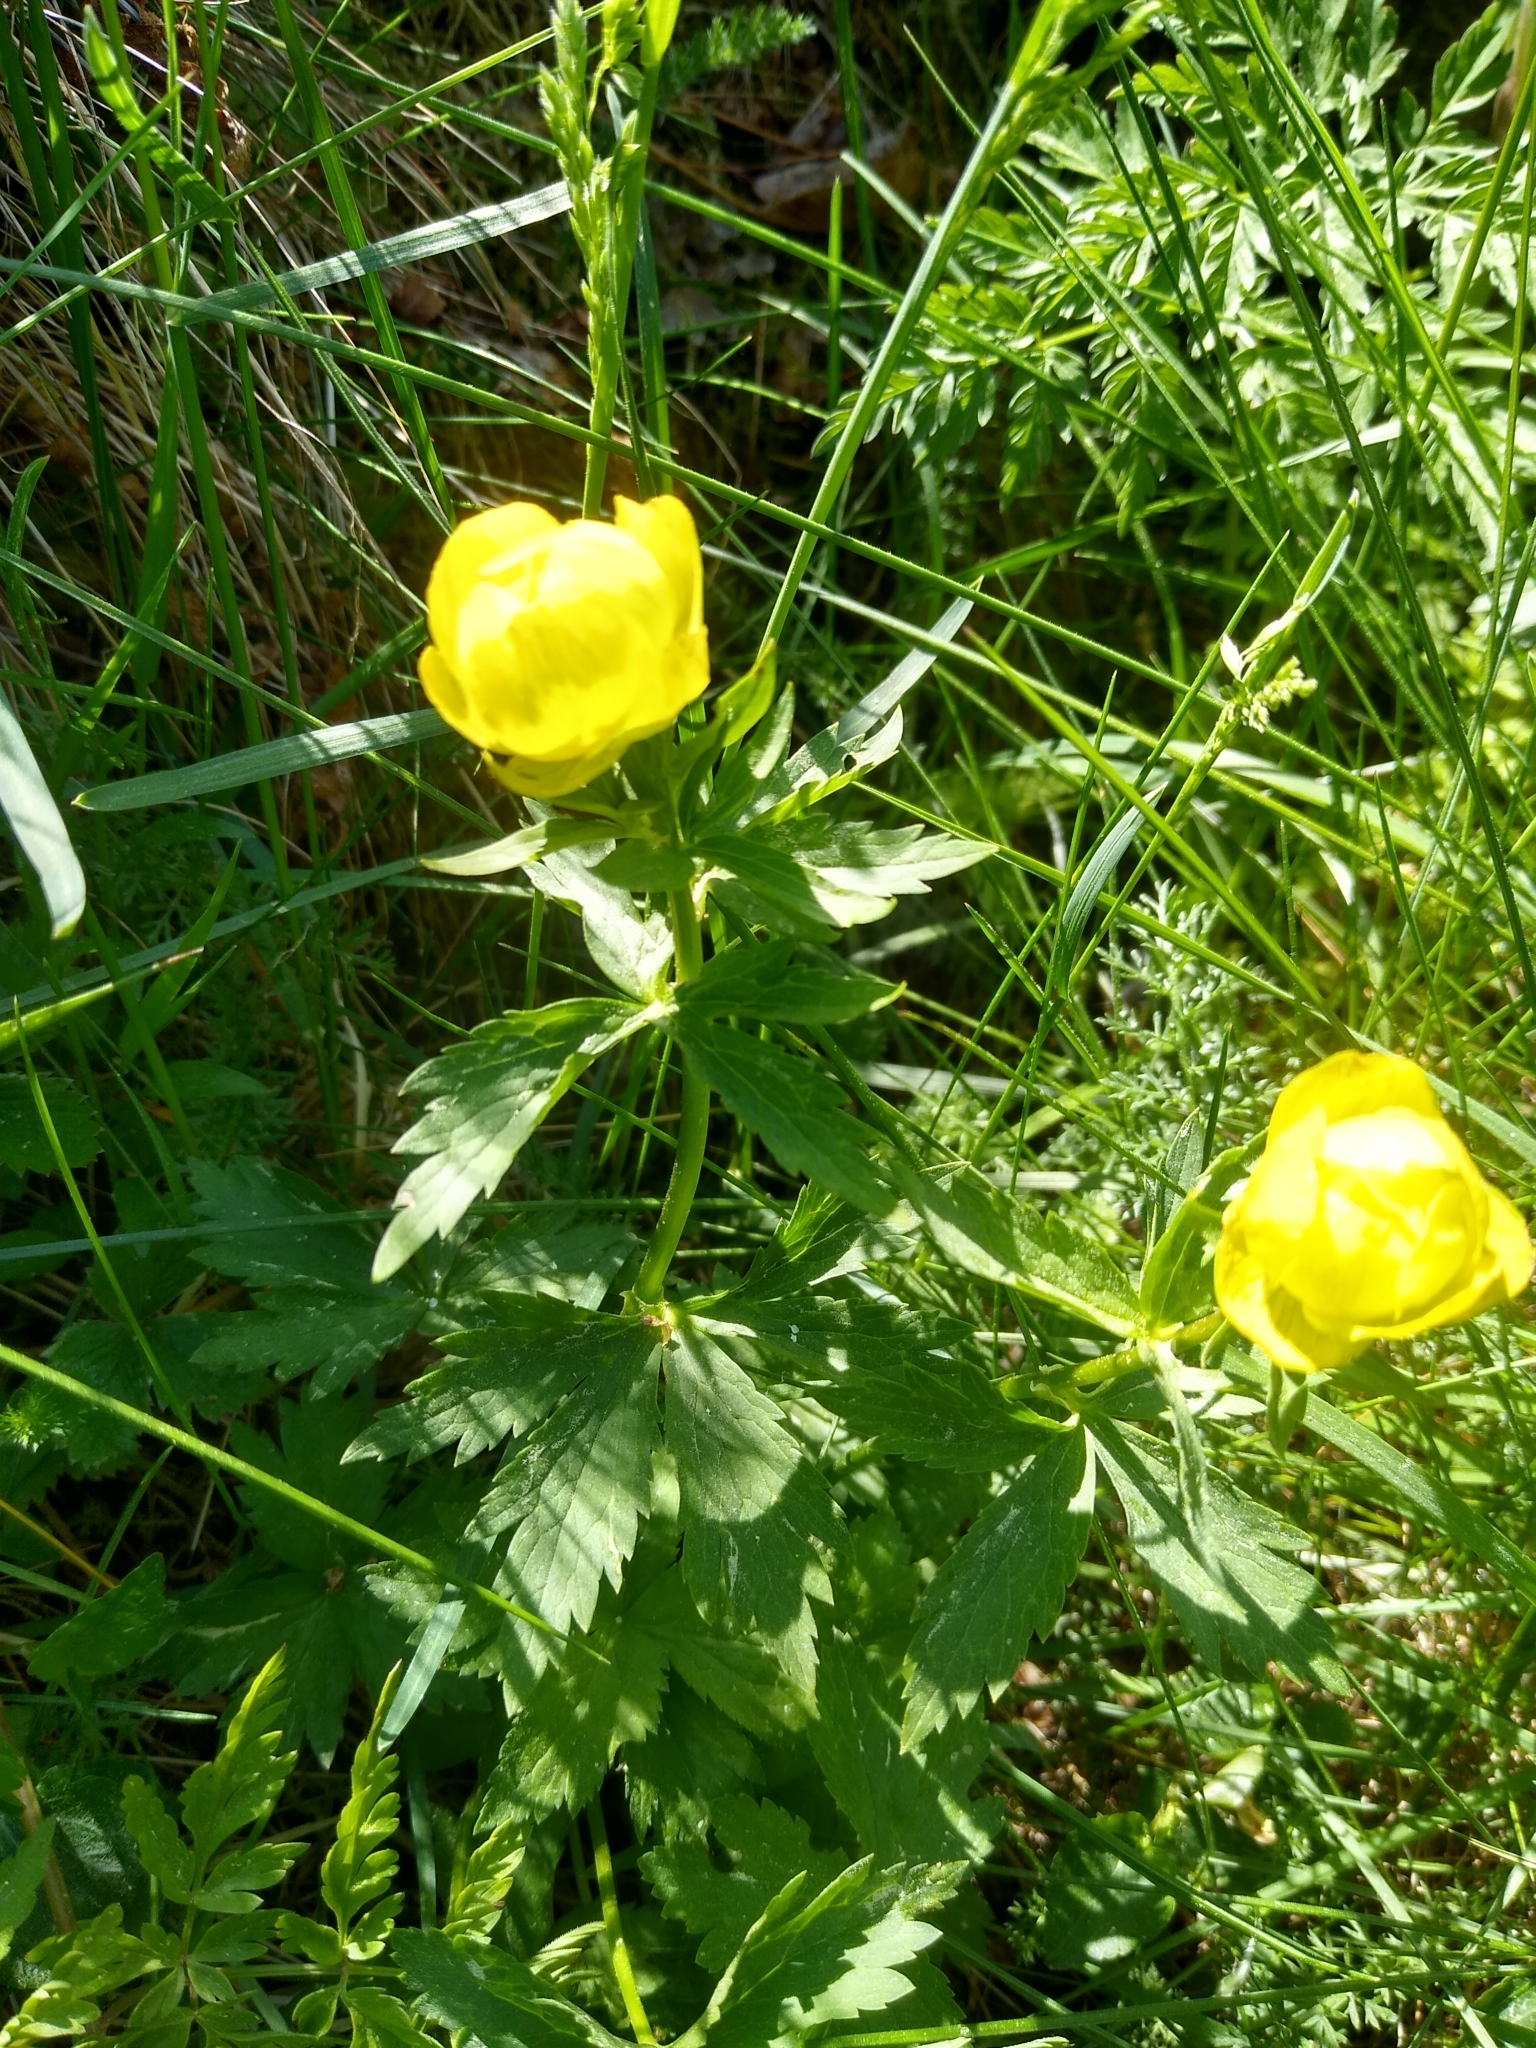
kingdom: Plantae
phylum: Tracheophyta
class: Magnoliopsida
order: Ranunculales
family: Ranunculaceae
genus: Trollius
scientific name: Trollius europaeus
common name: European globeflower
